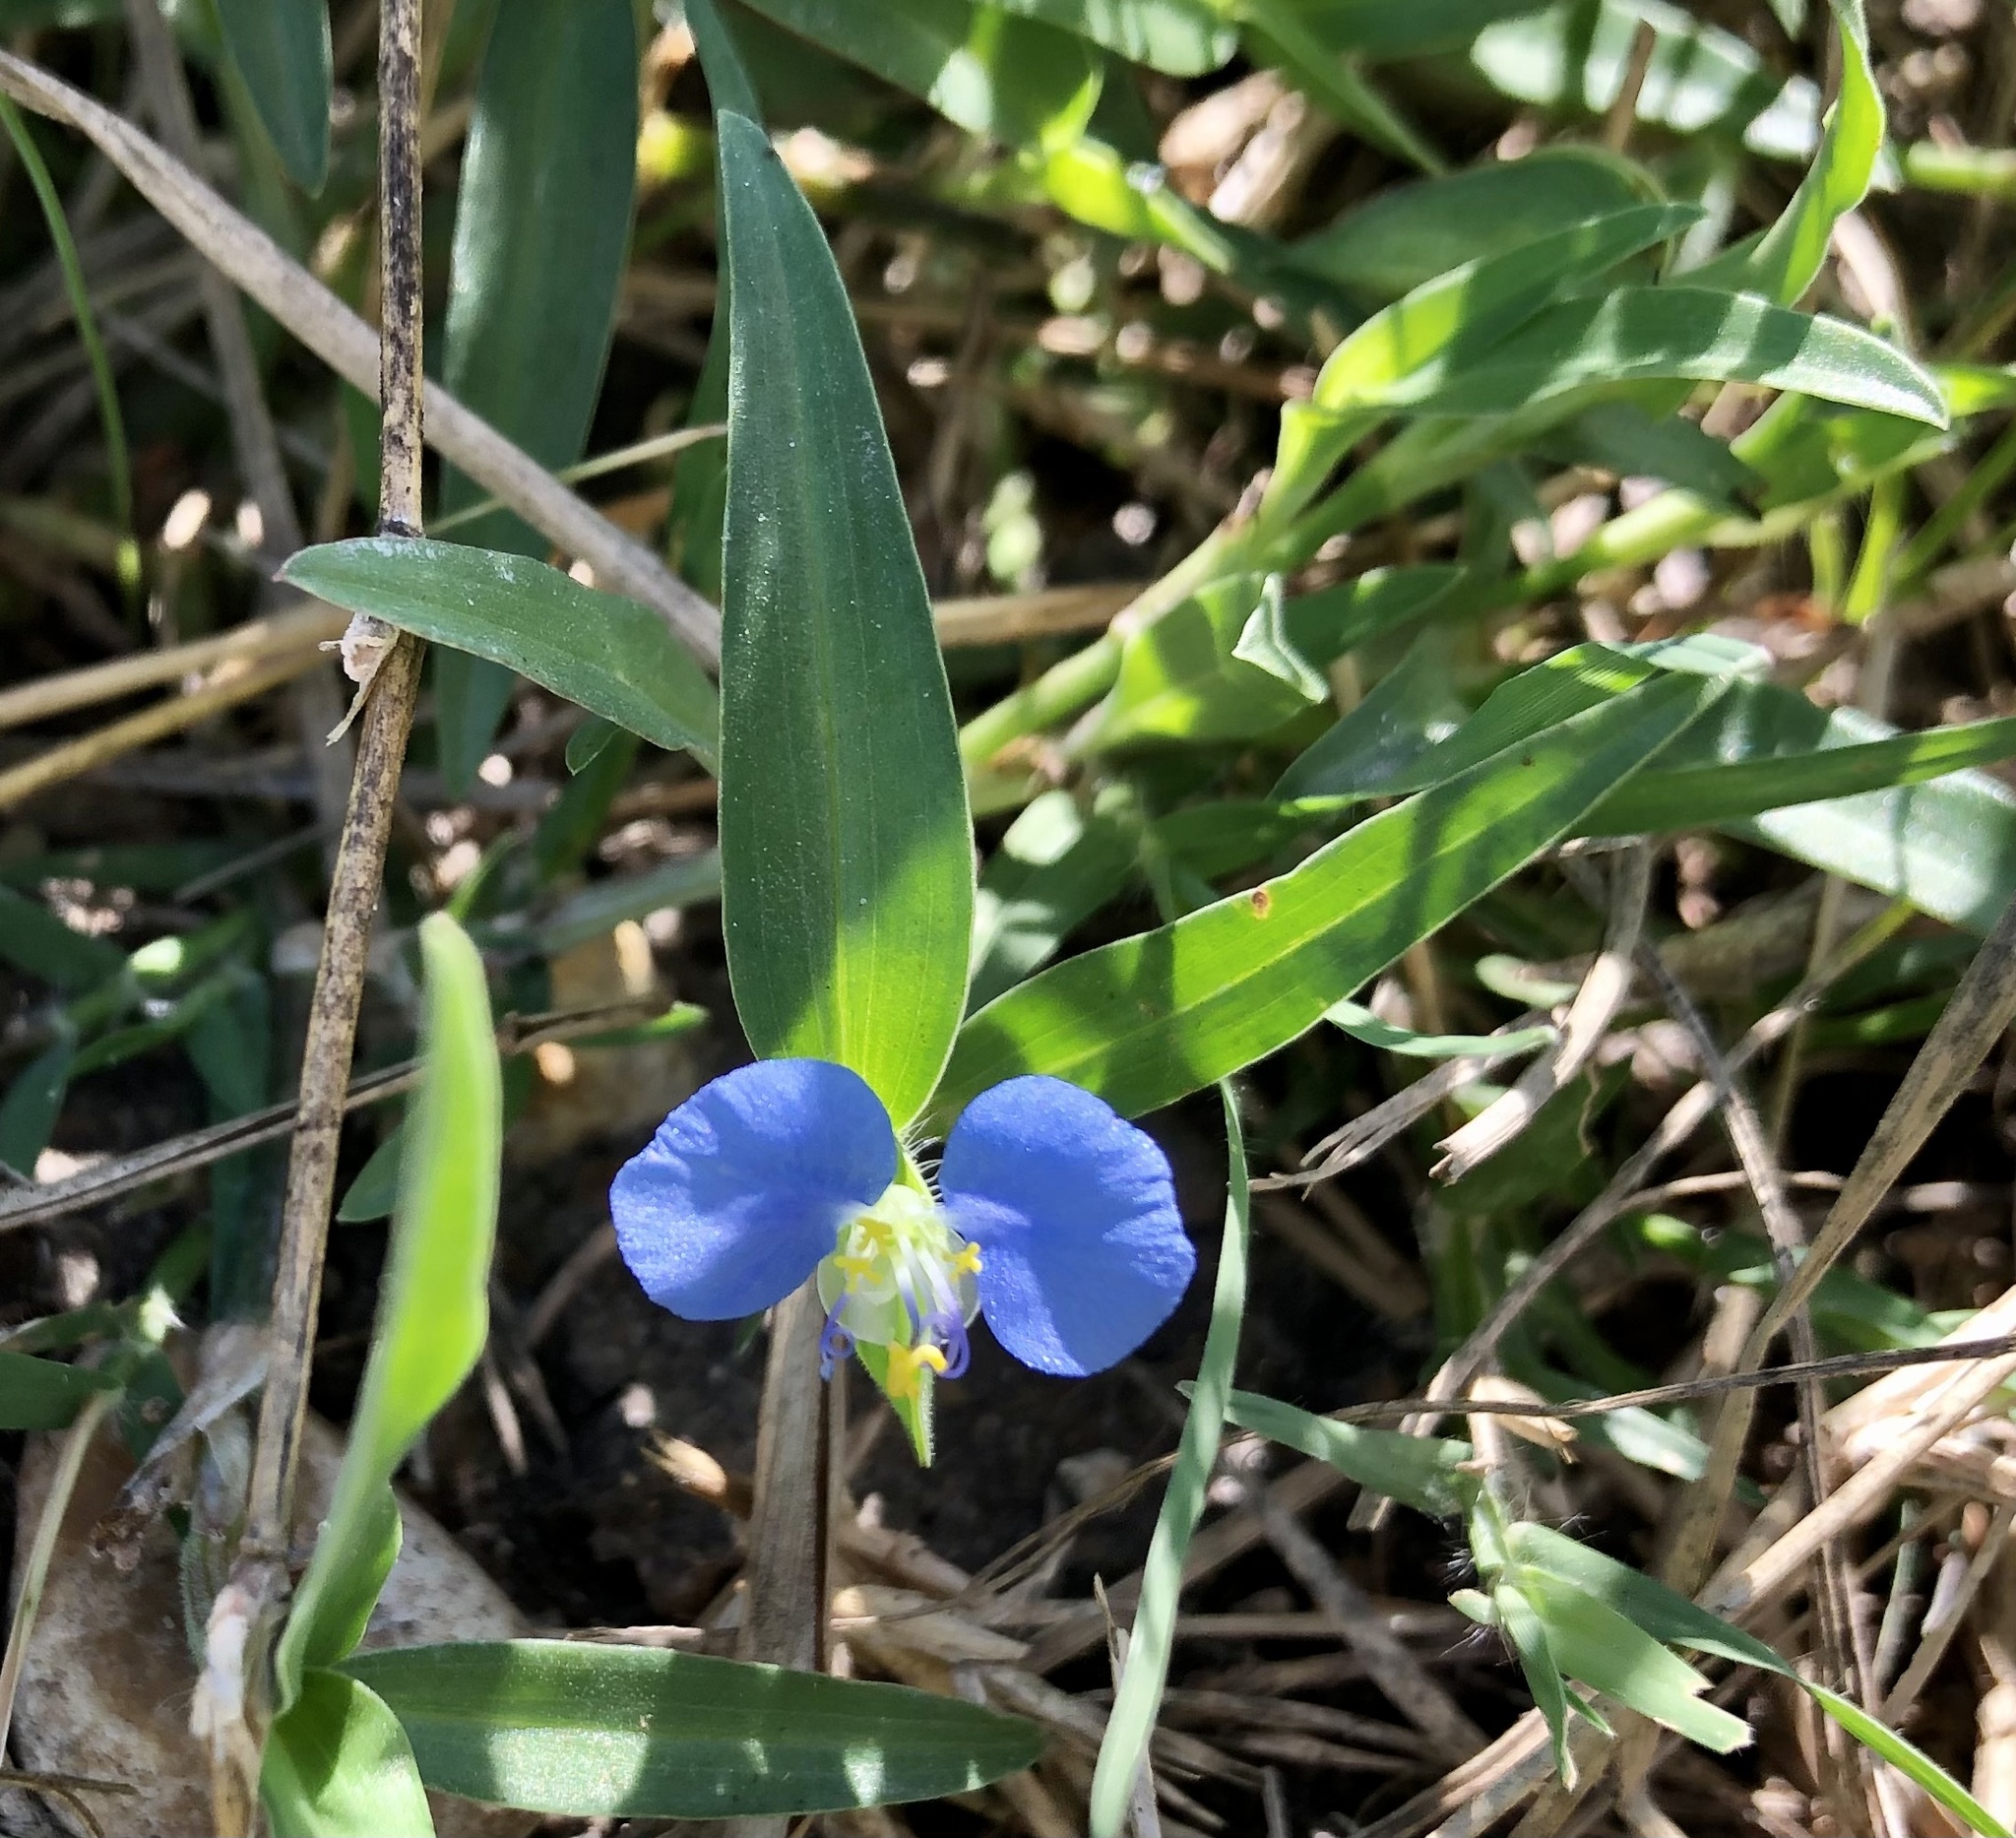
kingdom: Plantae
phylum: Tracheophyta
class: Liliopsida
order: Commelinales
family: Commelinaceae
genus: Commelina
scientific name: Commelina erecta
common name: Blousel blommetjie
